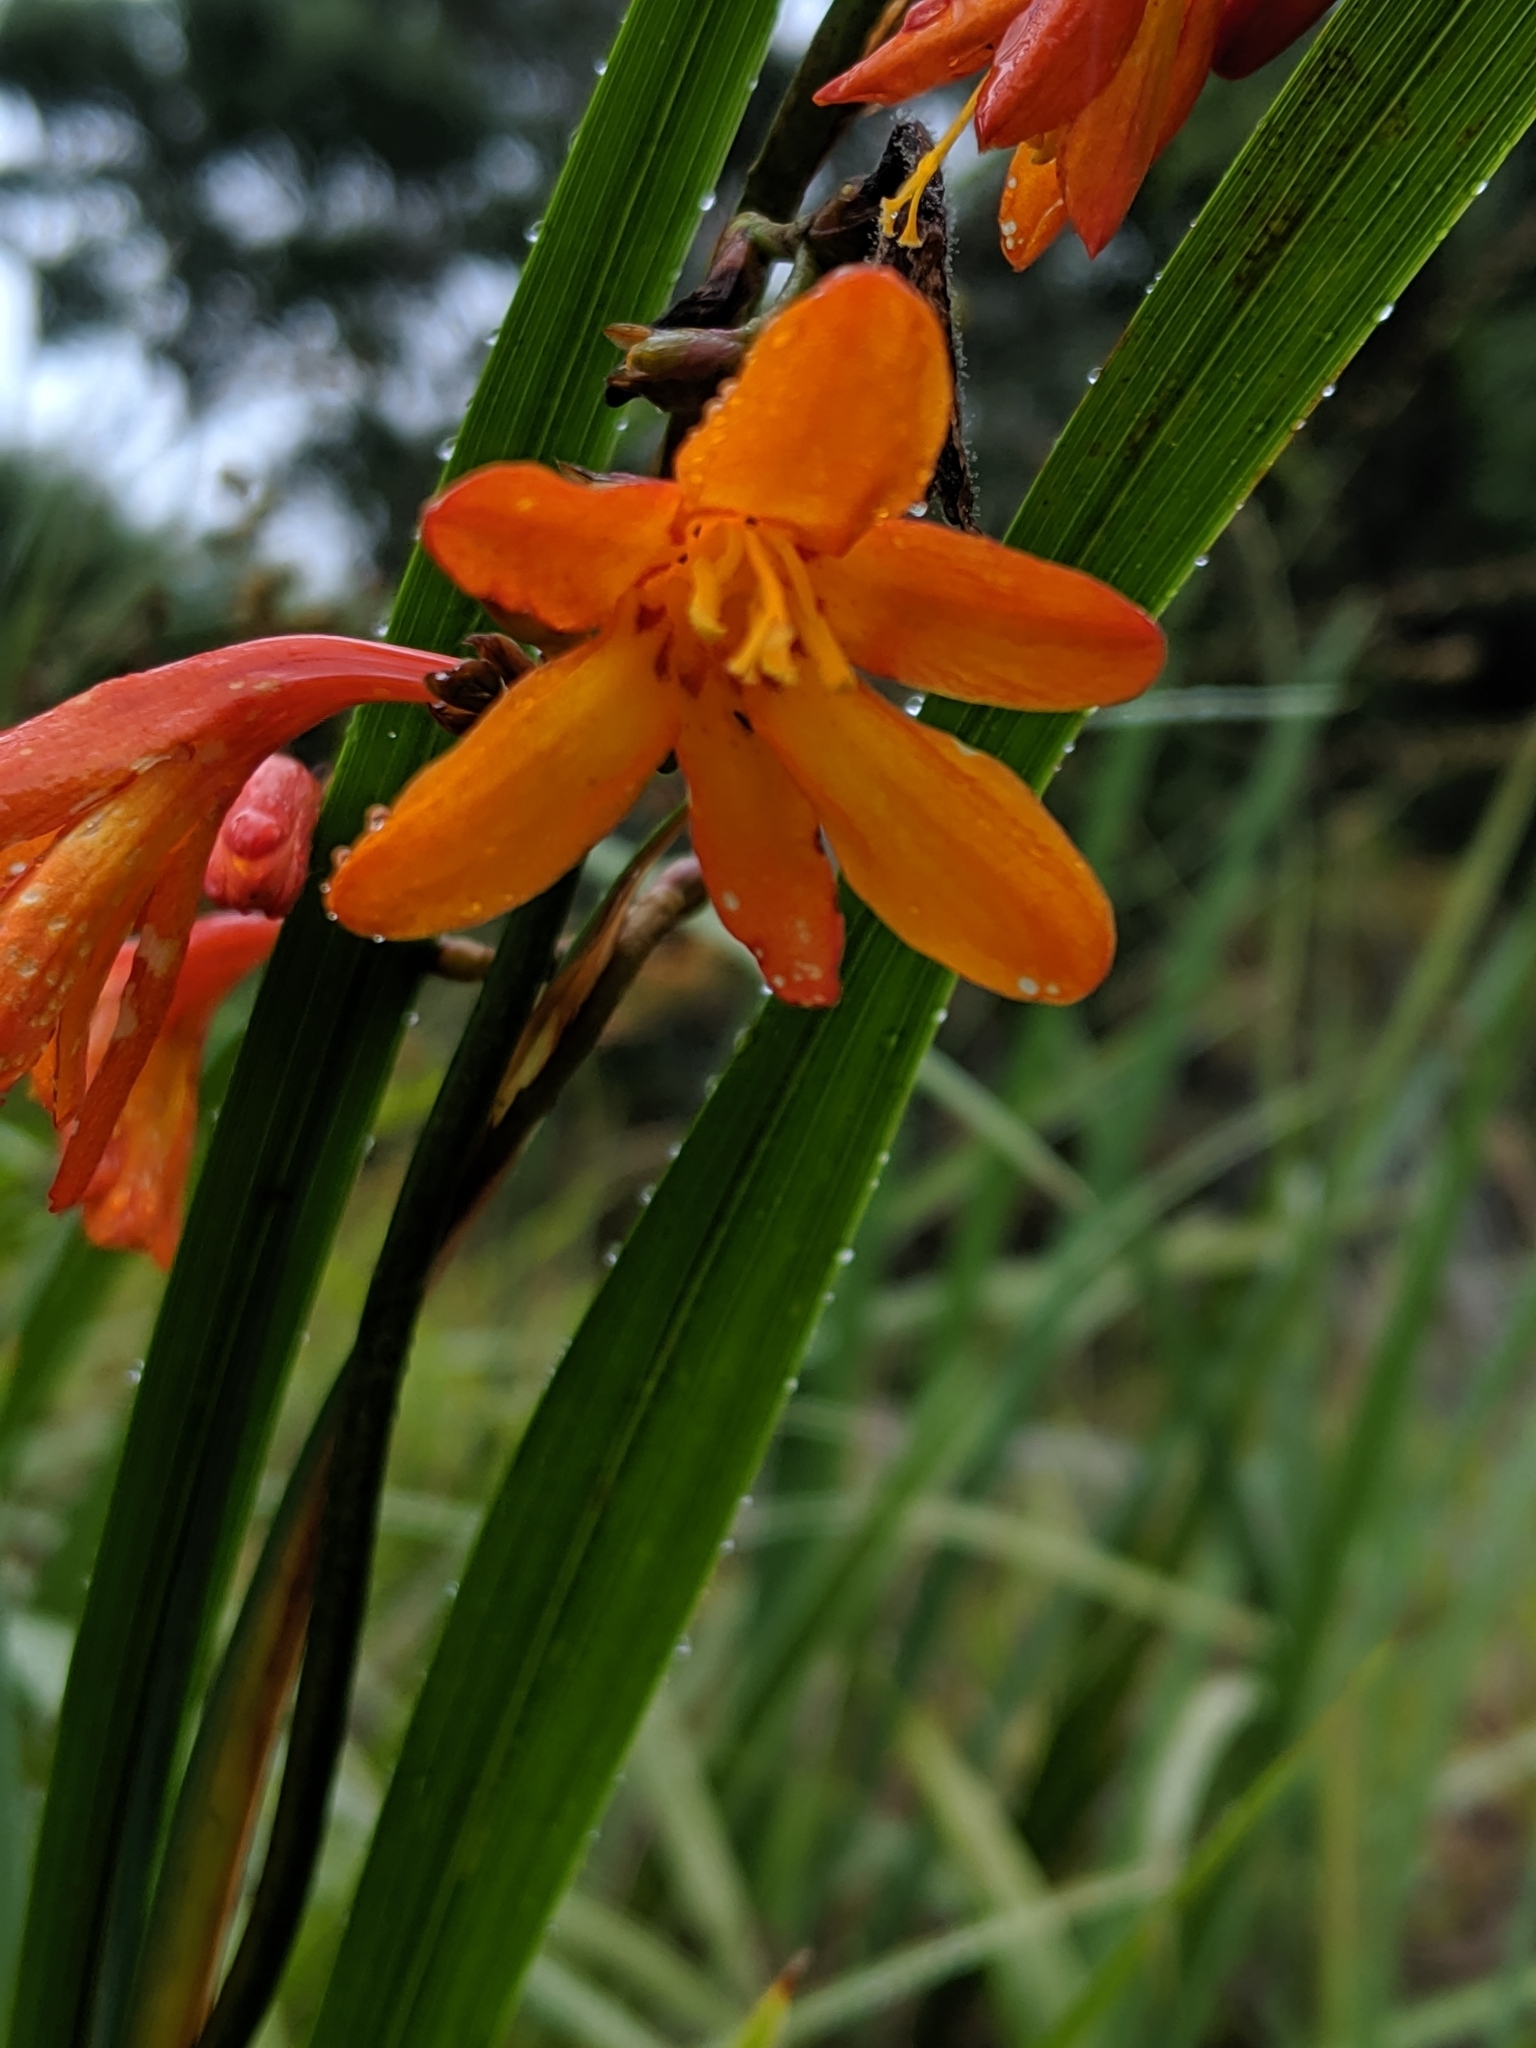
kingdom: Plantae
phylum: Tracheophyta
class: Liliopsida
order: Asparagales
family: Iridaceae
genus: Crocosmia
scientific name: Crocosmia crocosmiiflora
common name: Montbretia
